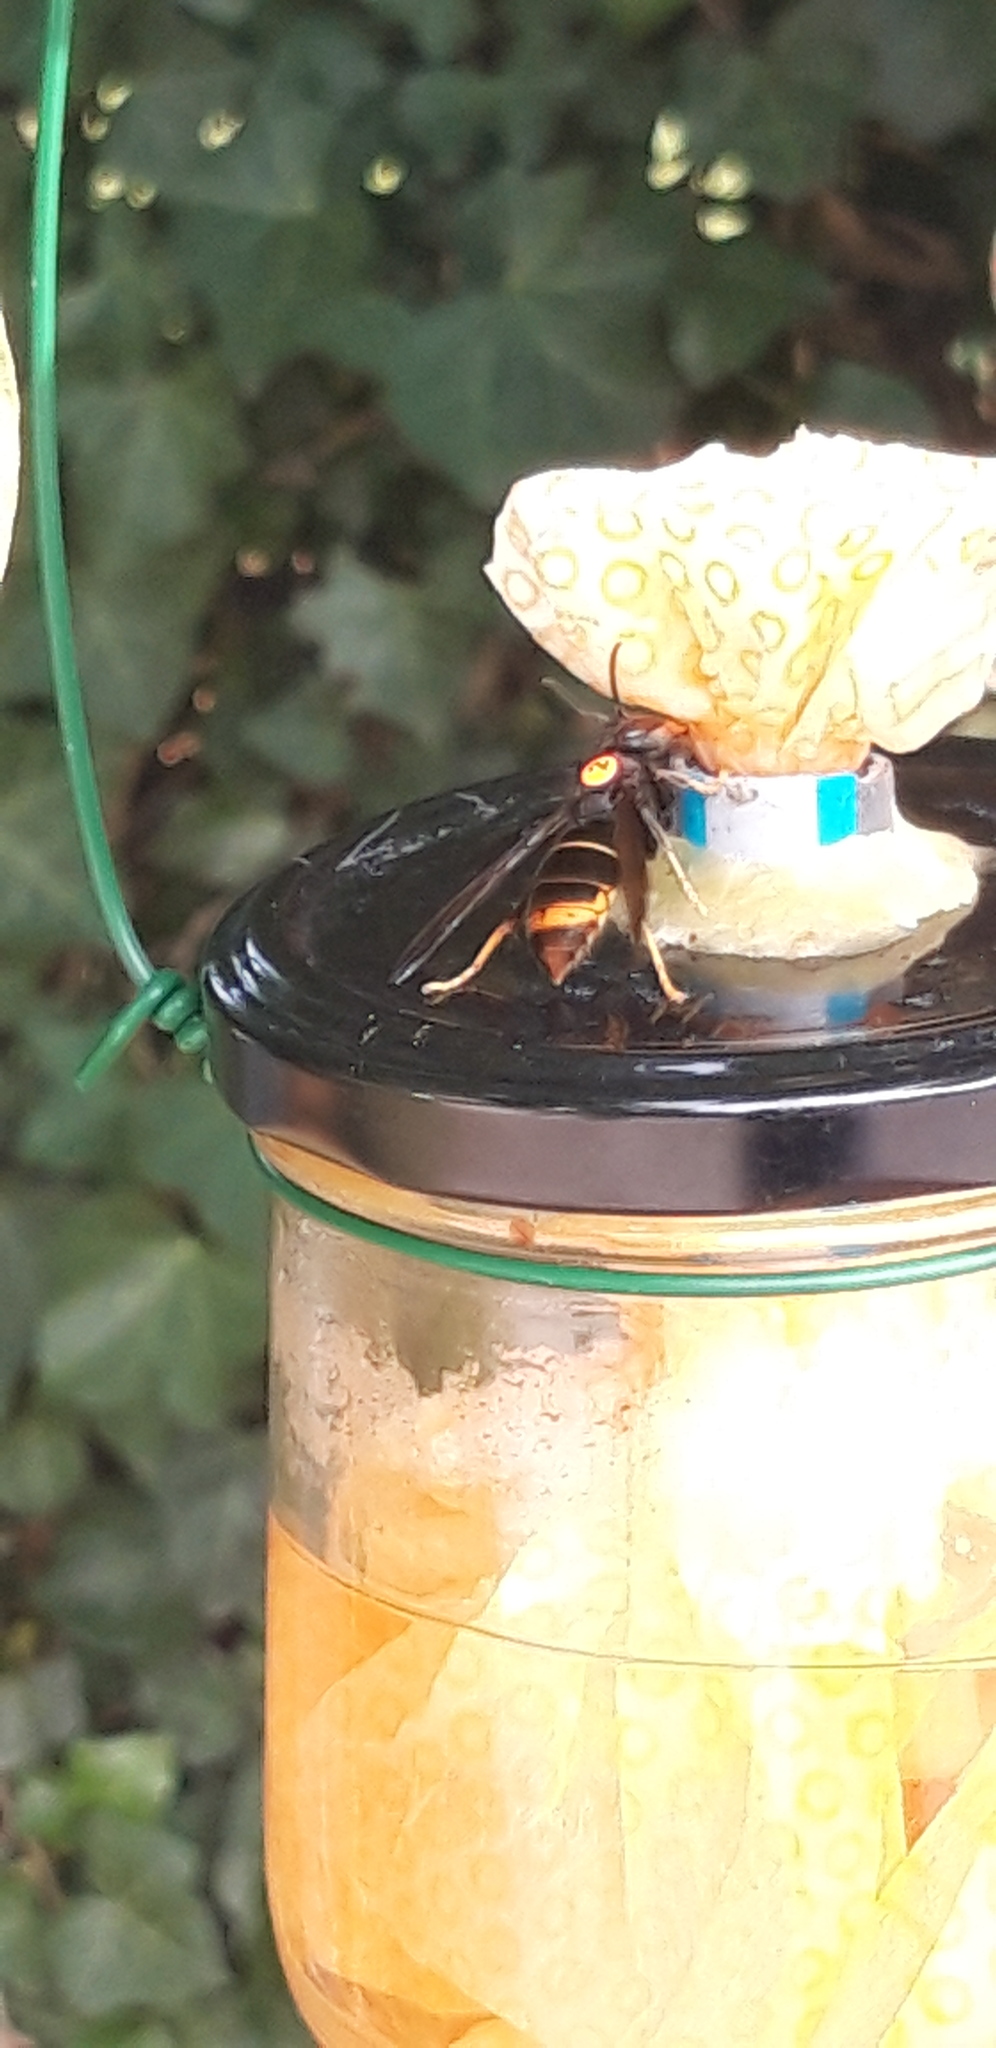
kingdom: Animalia
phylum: Arthropoda
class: Insecta
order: Hymenoptera
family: Vespidae
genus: Vespa
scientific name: Vespa velutina
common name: Asian hornet
